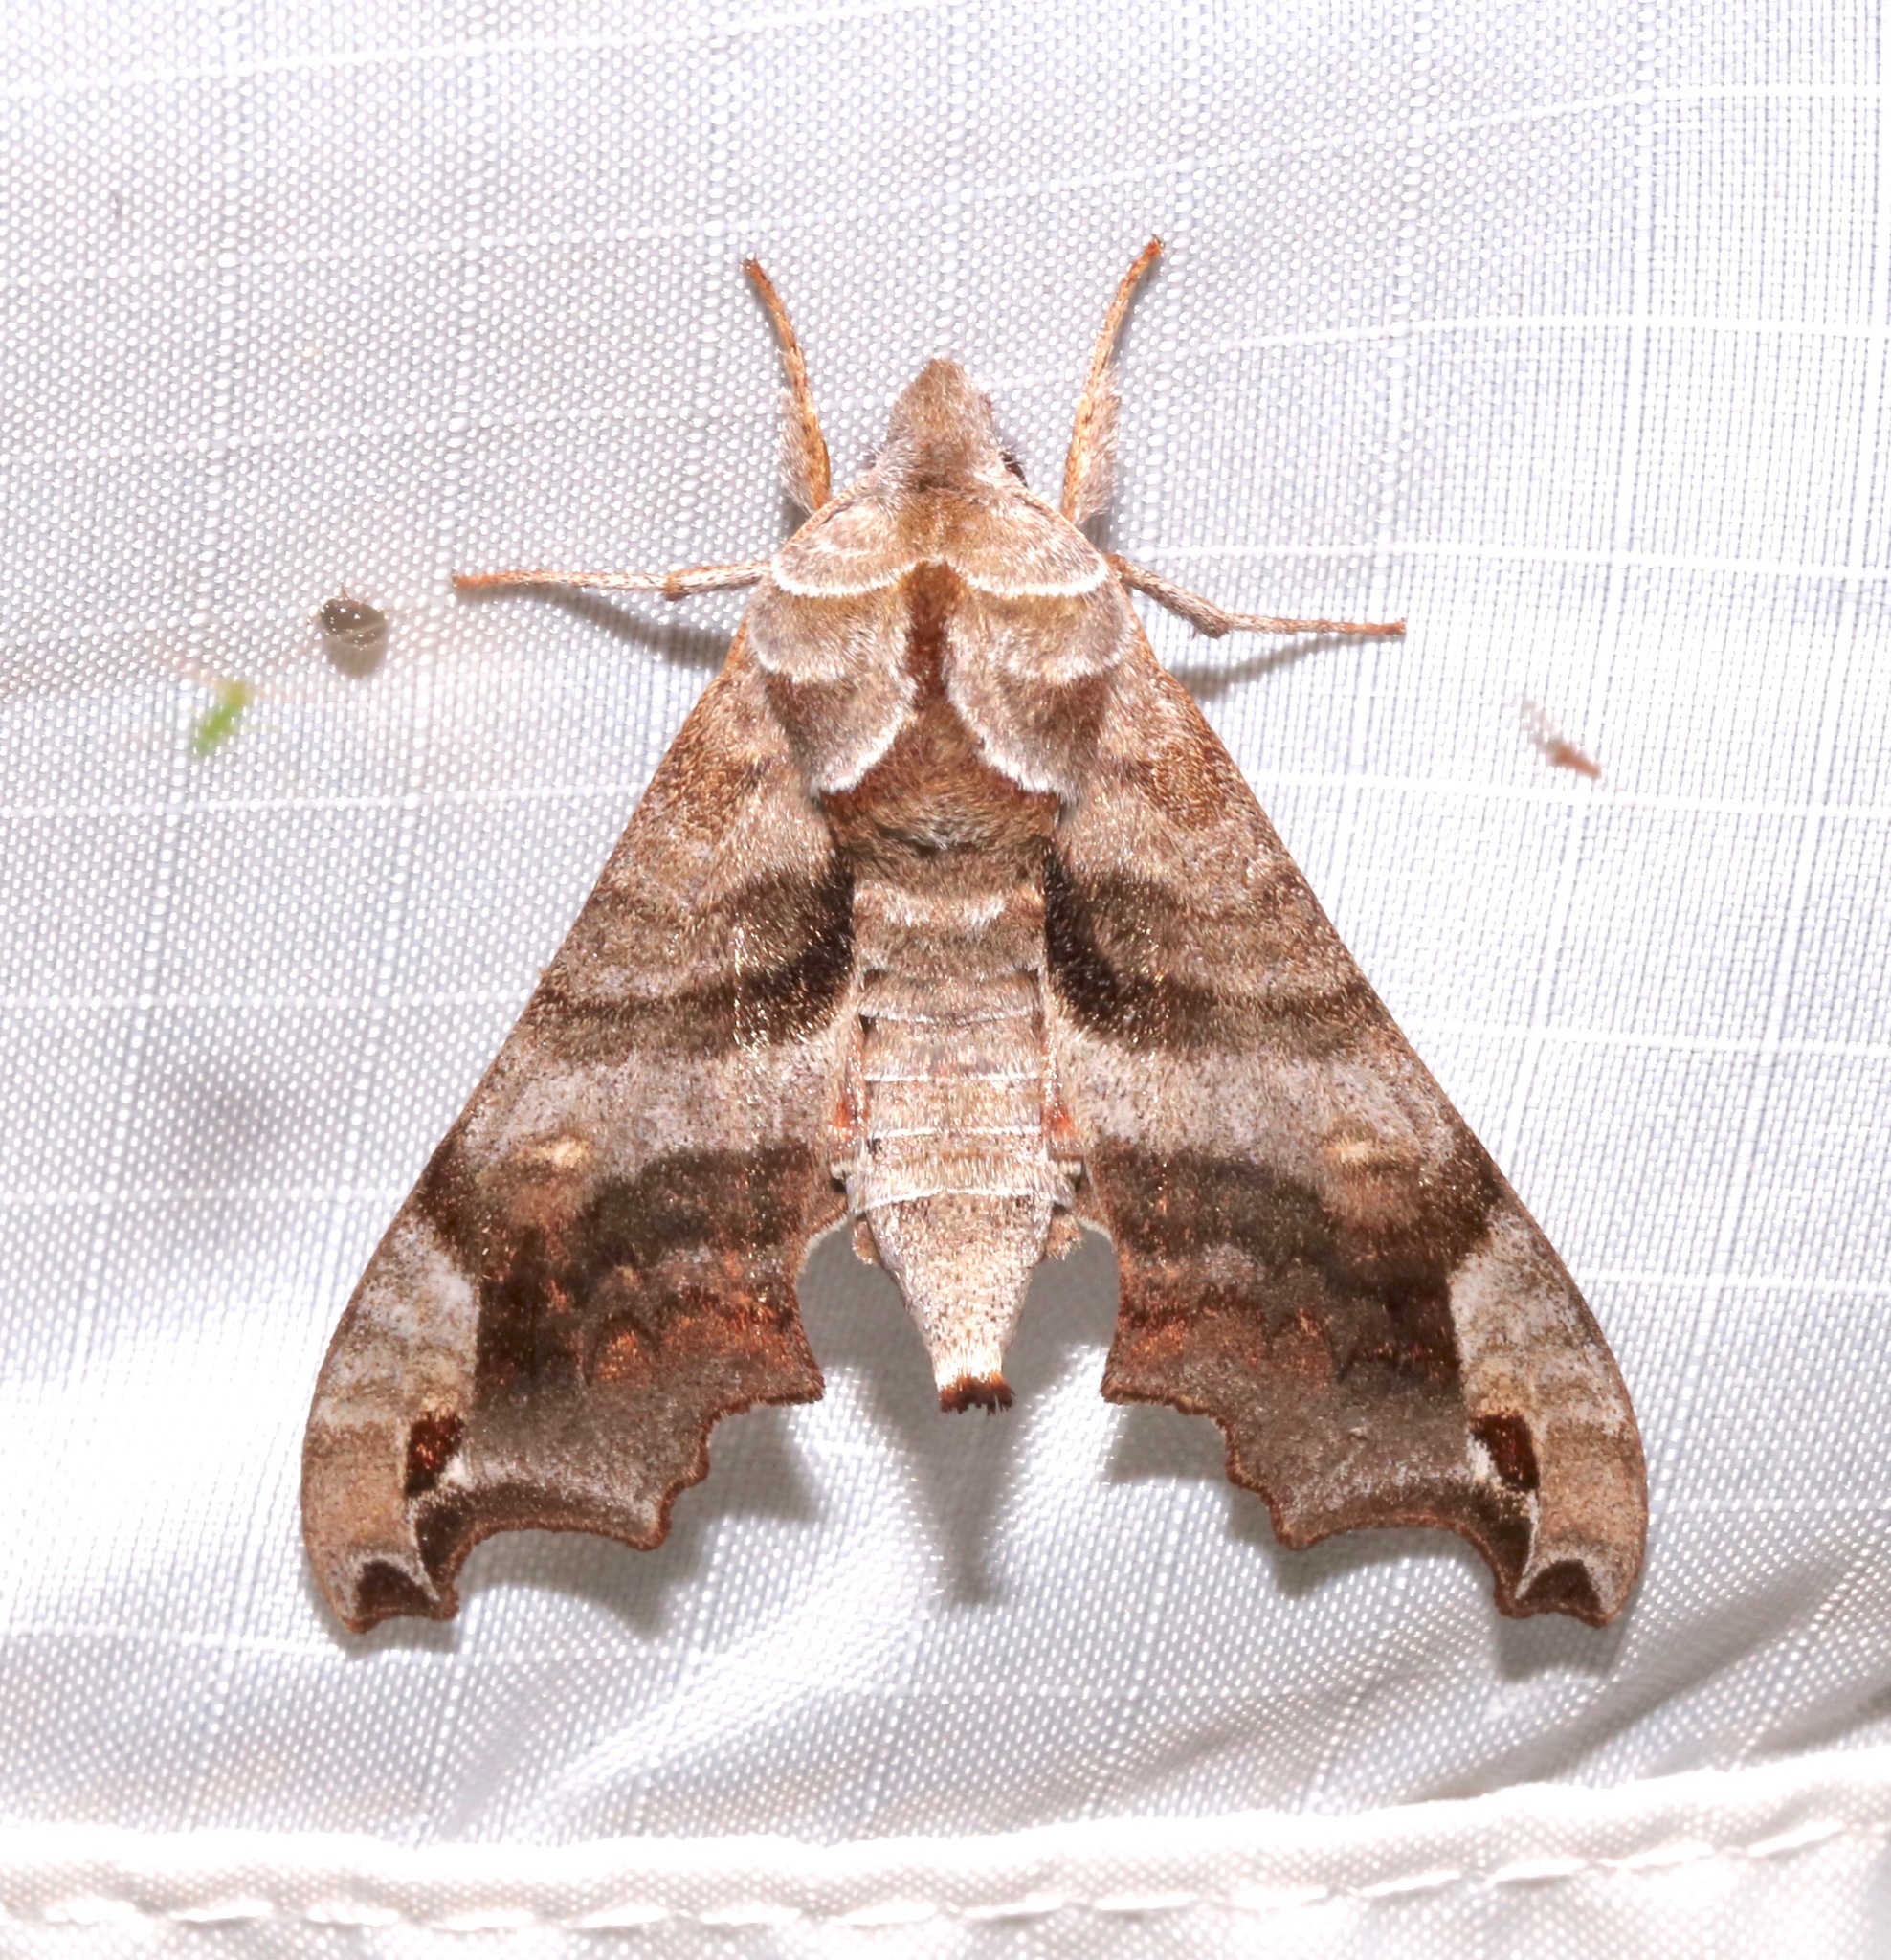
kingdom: Animalia
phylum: Arthropoda
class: Insecta
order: Lepidoptera
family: Sphingidae
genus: Deidamia
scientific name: Deidamia inscriptum
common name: Lettered sphinx
